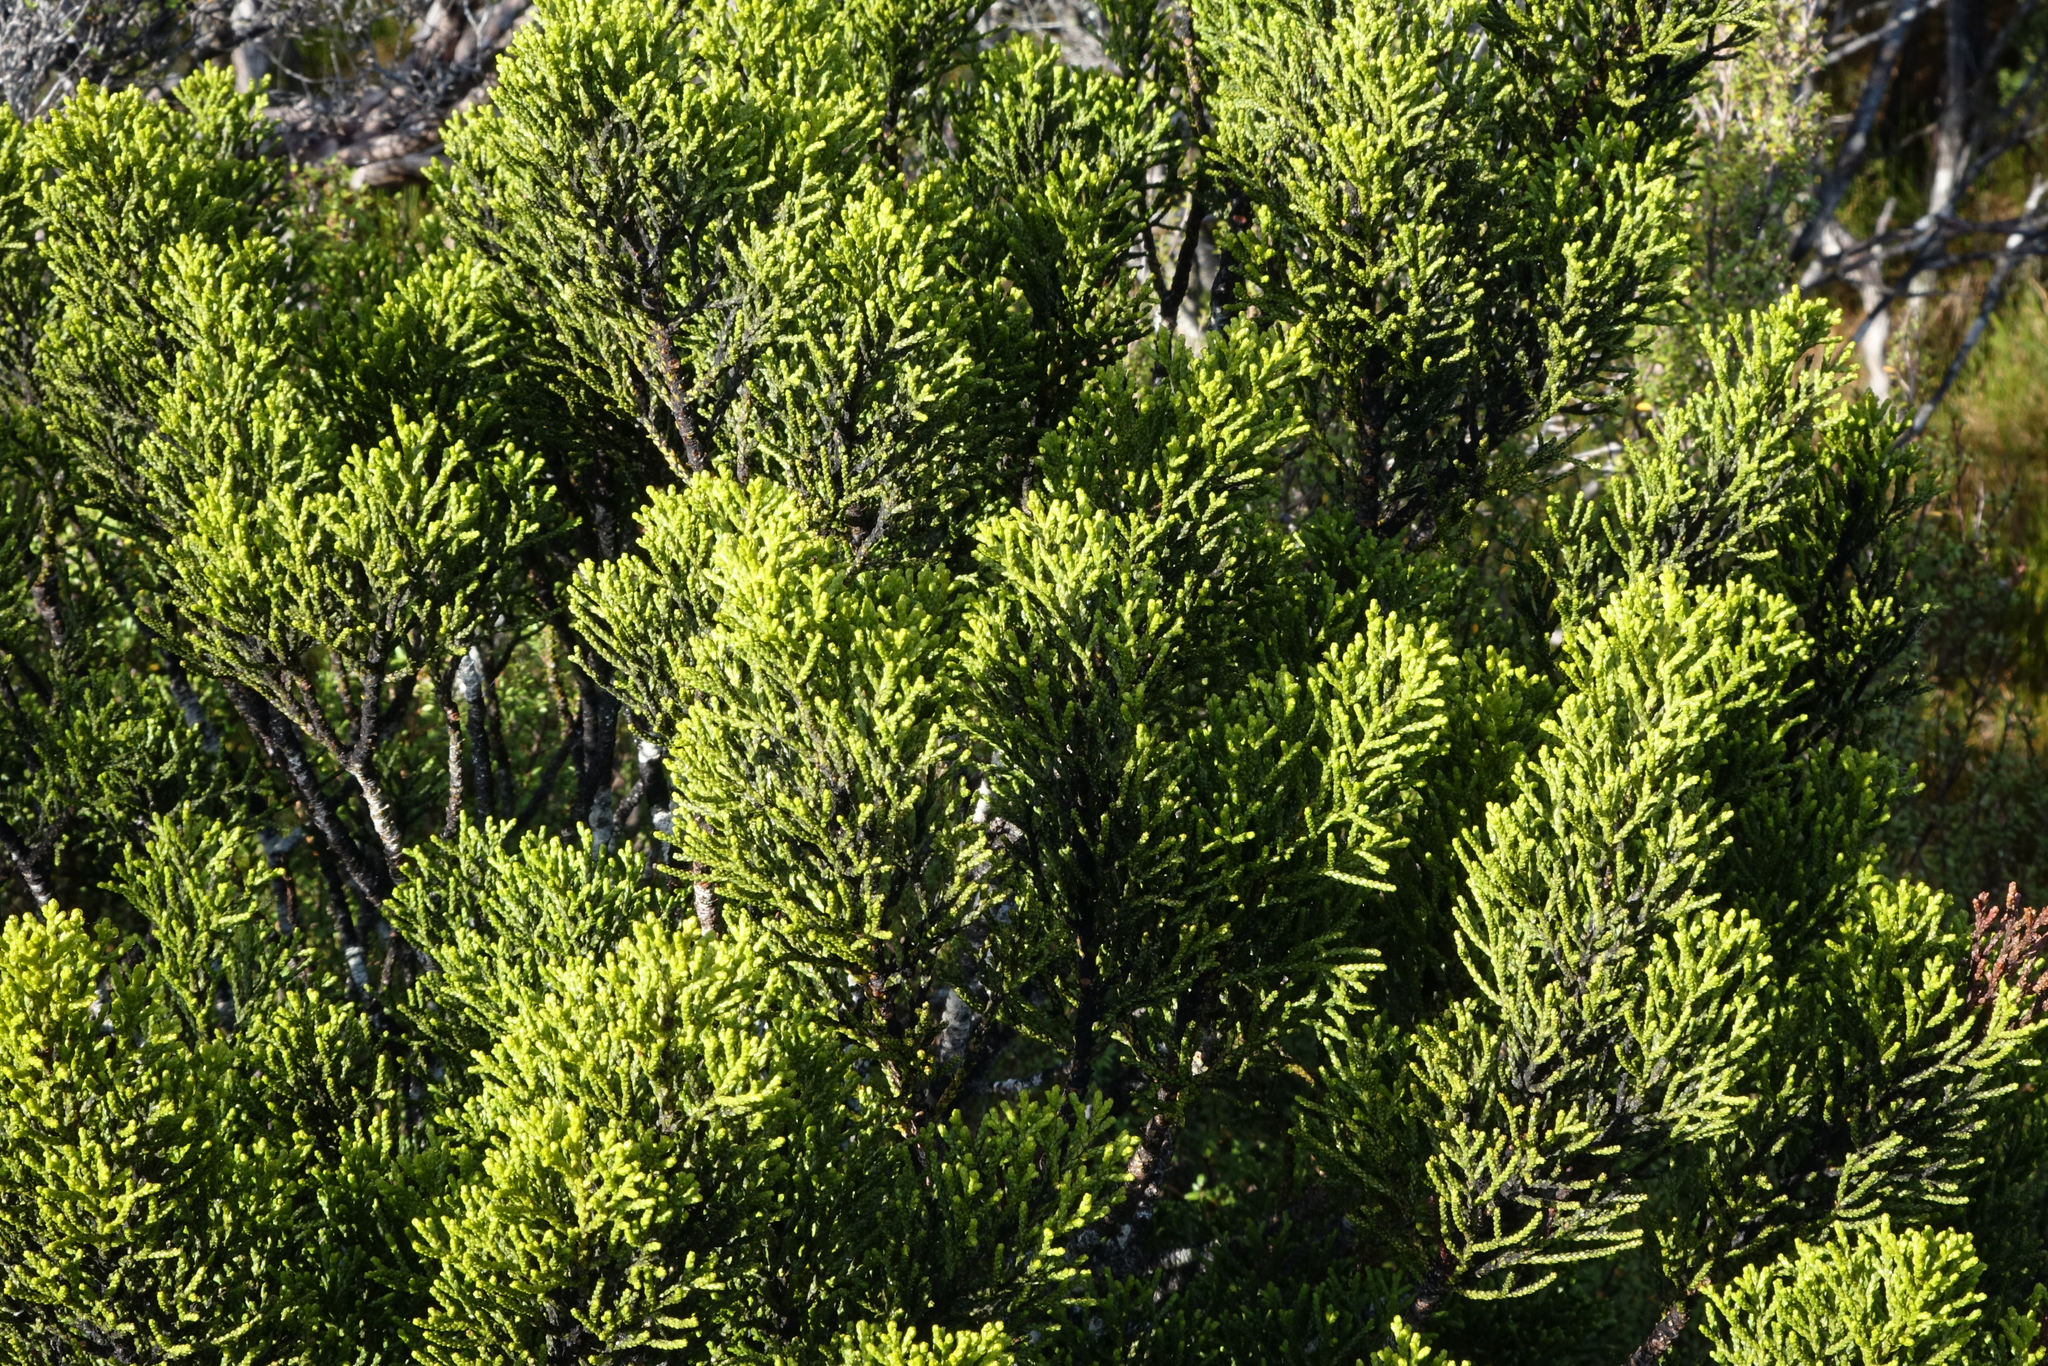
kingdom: Plantae
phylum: Tracheophyta
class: Pinopsida
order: Pinales
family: Podocarpaceae
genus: Halocarpus
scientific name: Halocarpus biformis
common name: Alpine tarwood
